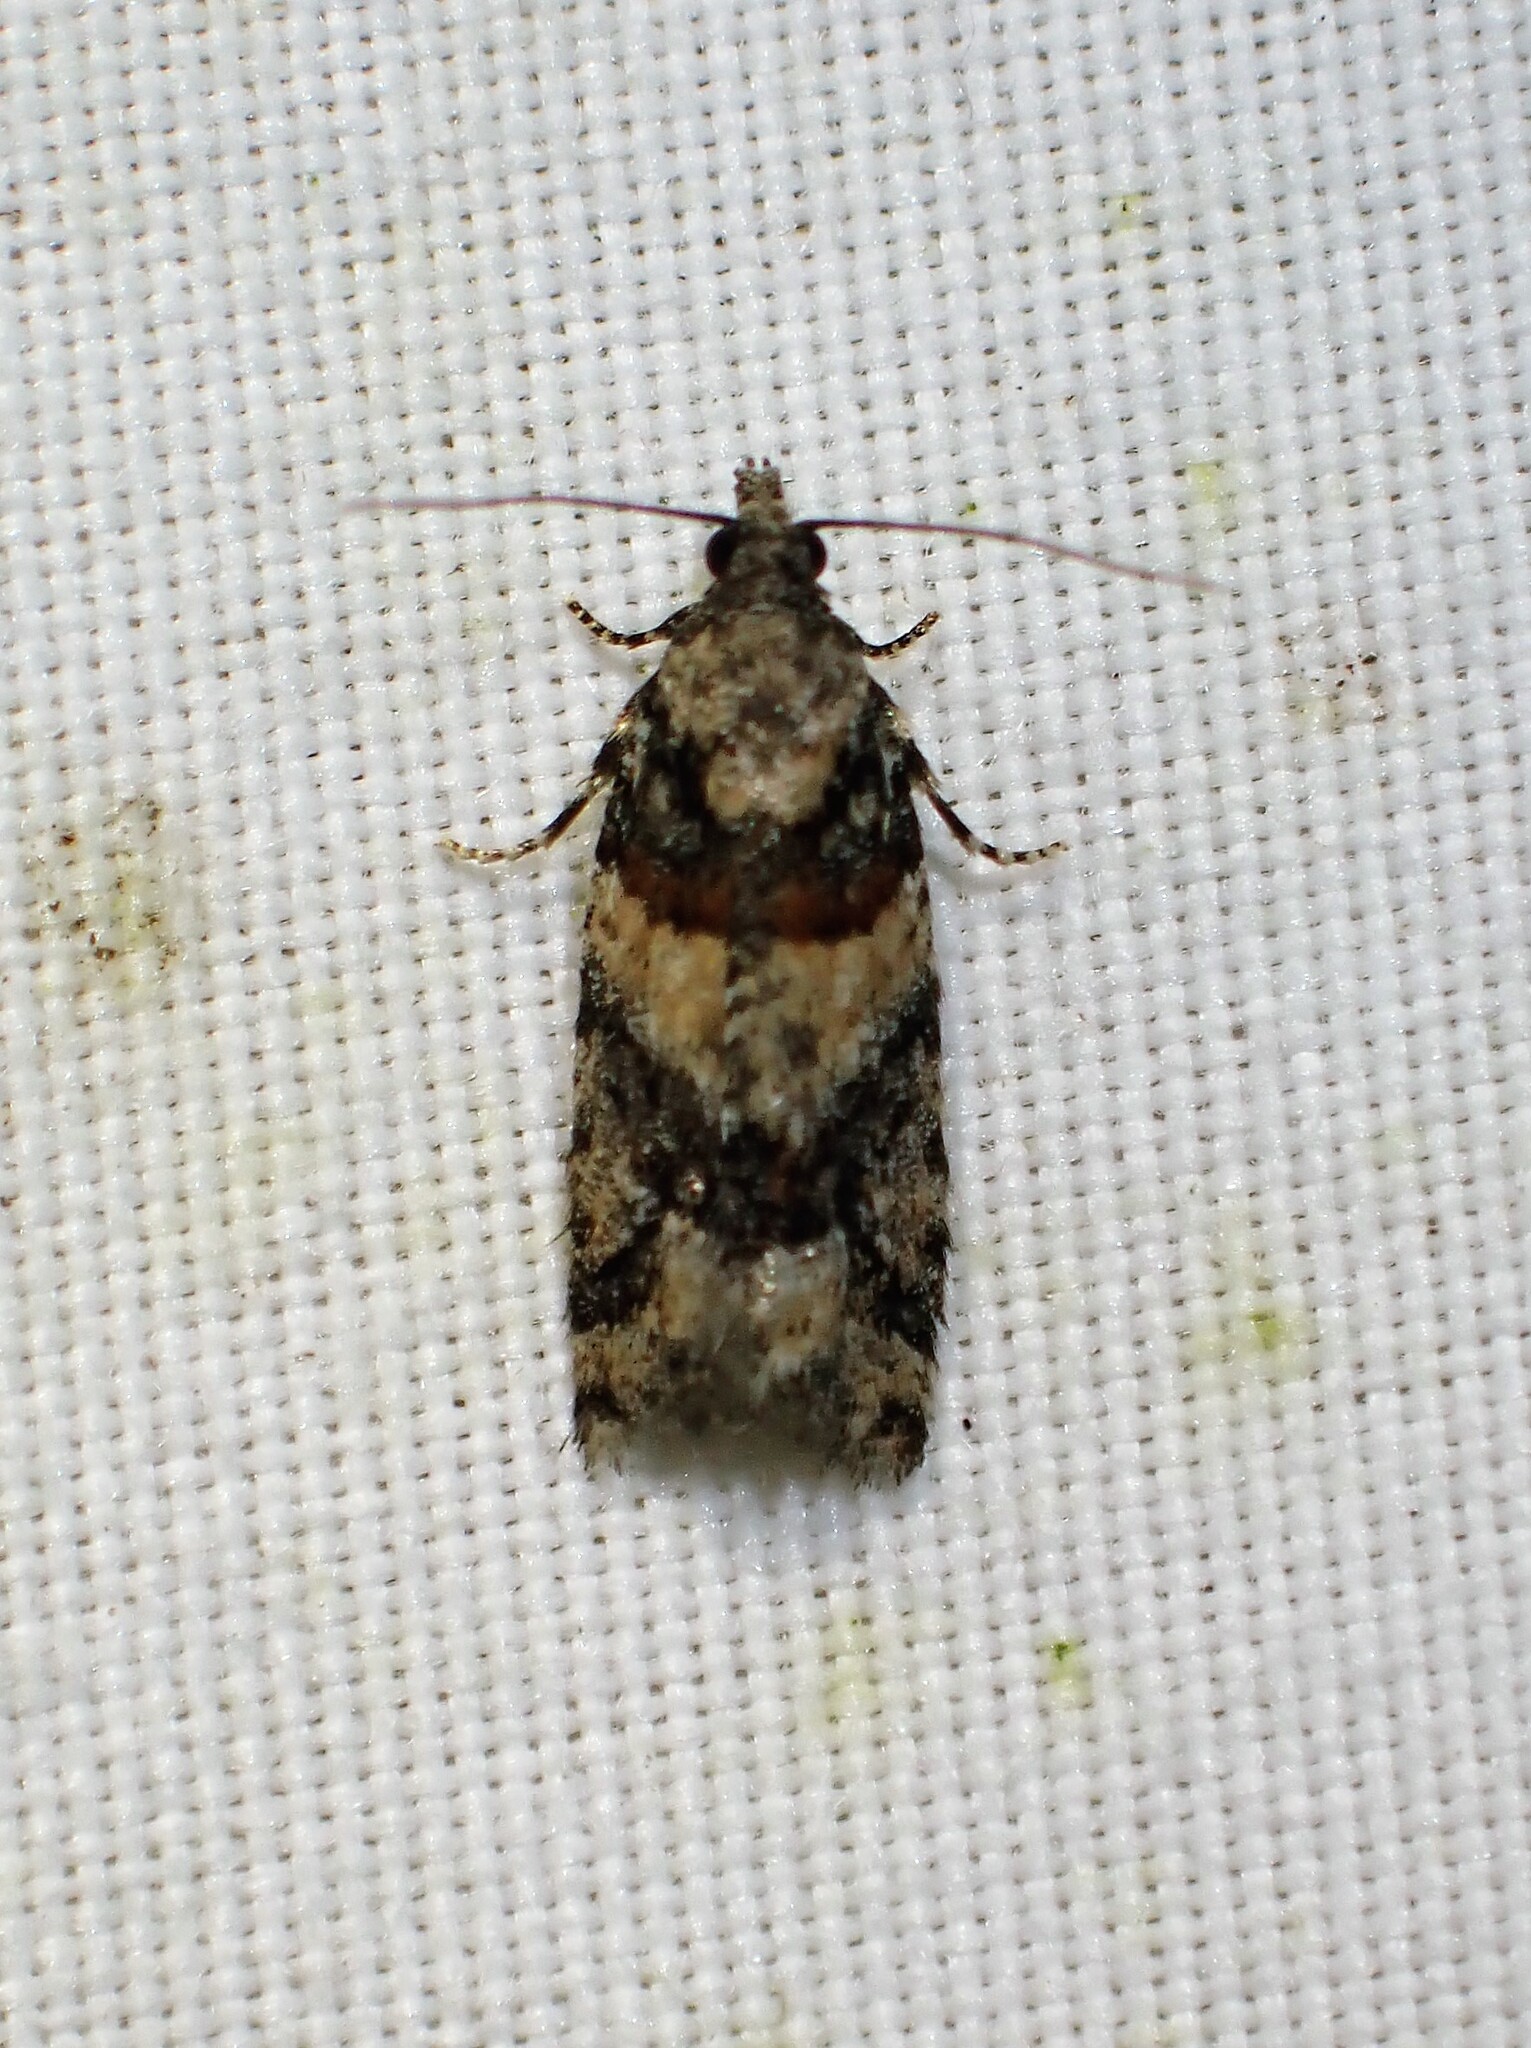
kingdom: Animalia
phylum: Arthropoda
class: Insecta
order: Lepidoptera
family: Tortricidae
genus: Epinotia
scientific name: Epinotia radicana
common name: Red-striped needleworm moth
